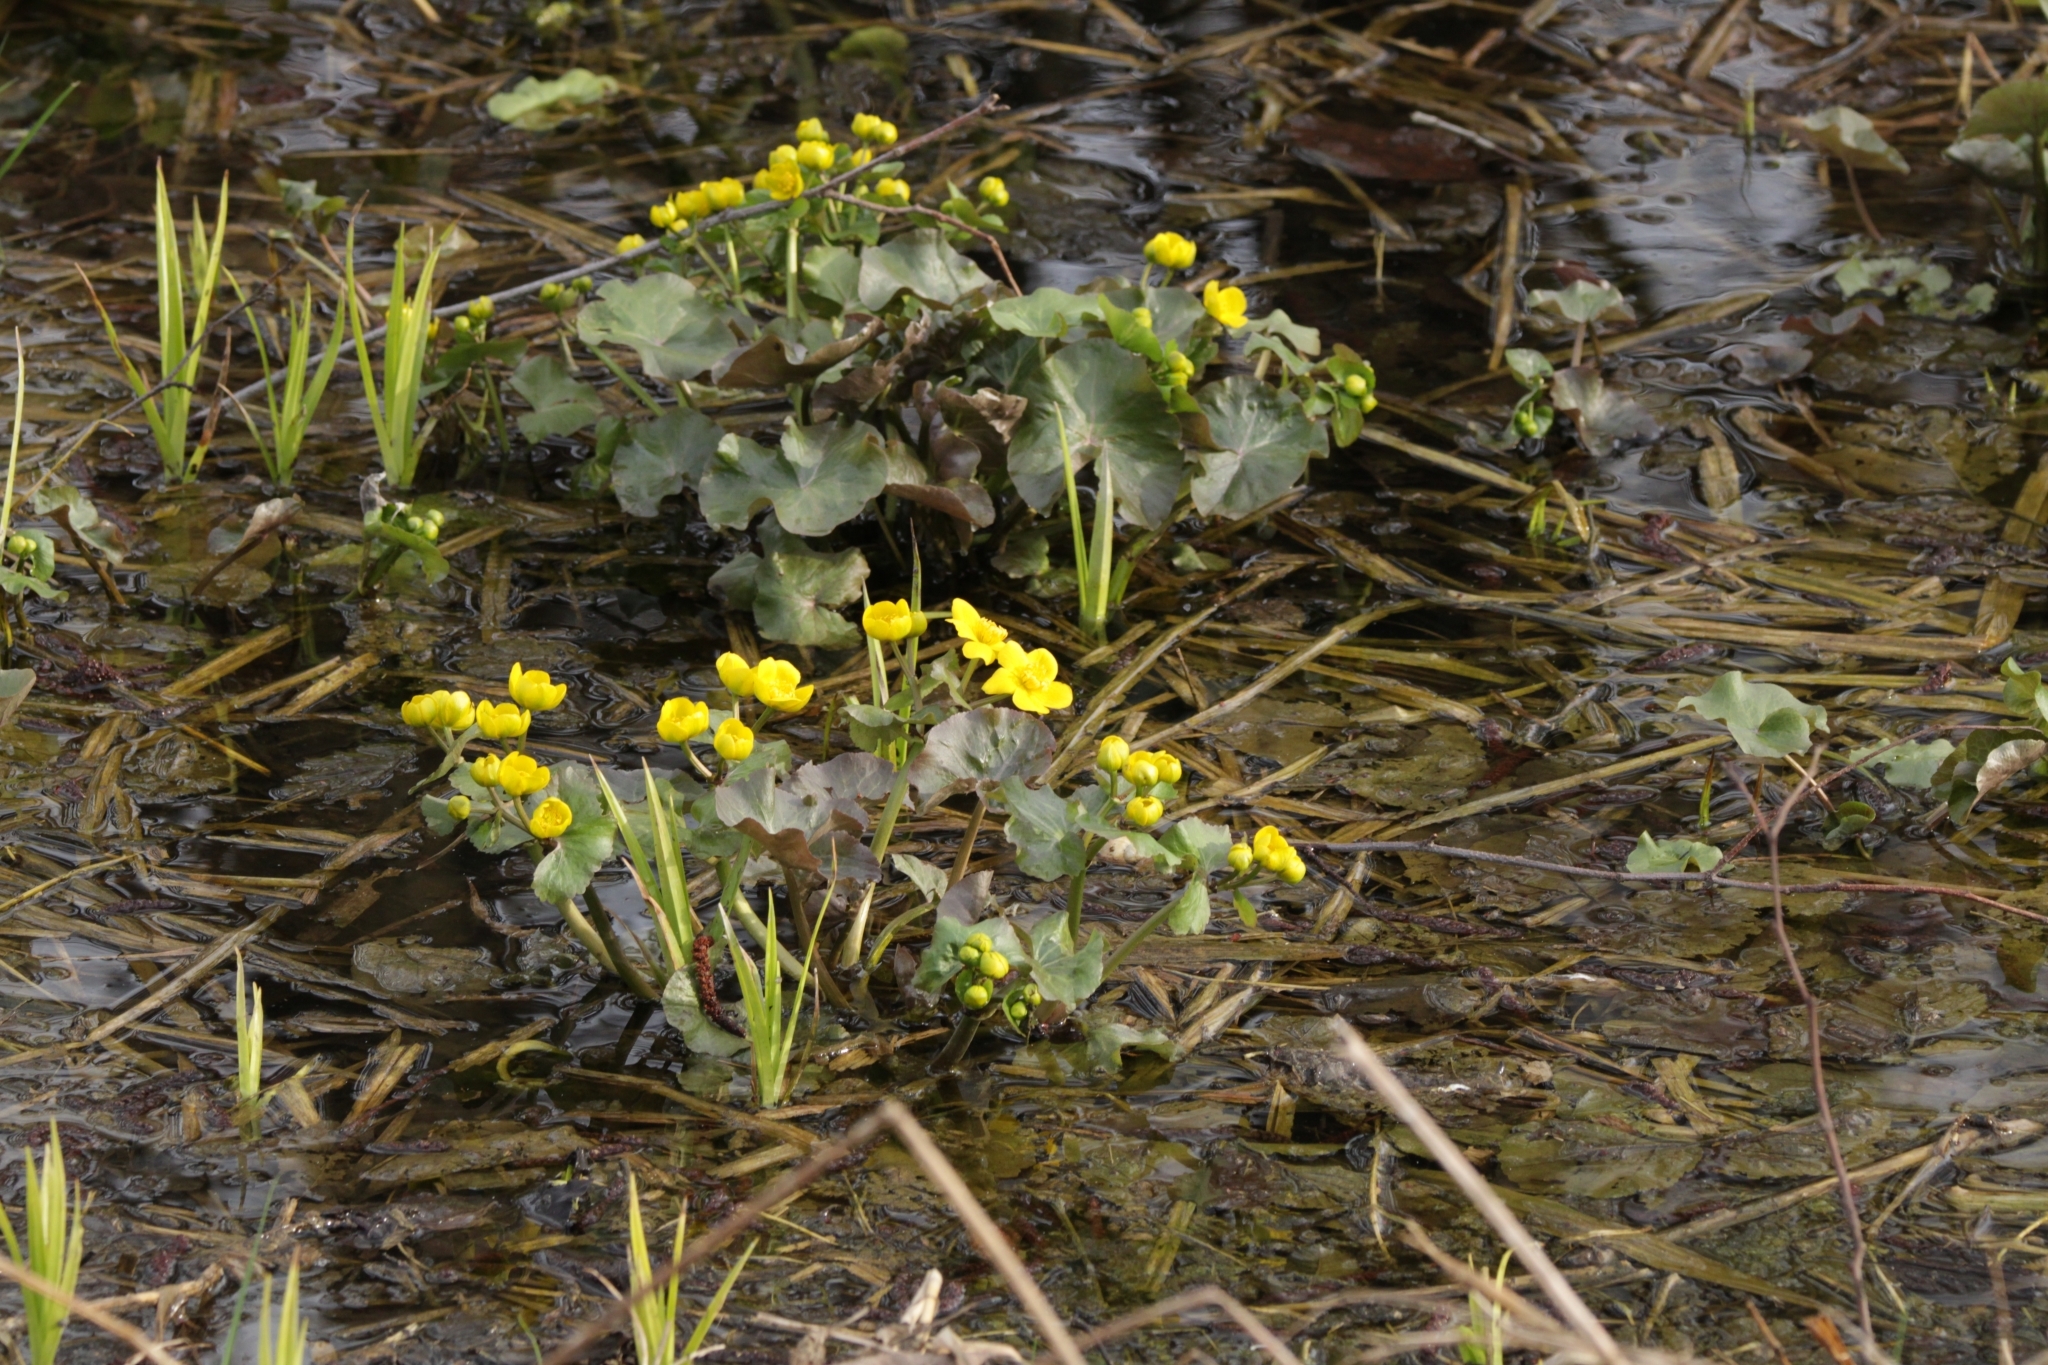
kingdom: Plantae
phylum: Tracheophyta
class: Magnoliopsida
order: Ranunculales
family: Ranunculaceae
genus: Caltha
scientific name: Caltha palustris
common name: Marsh marigold
